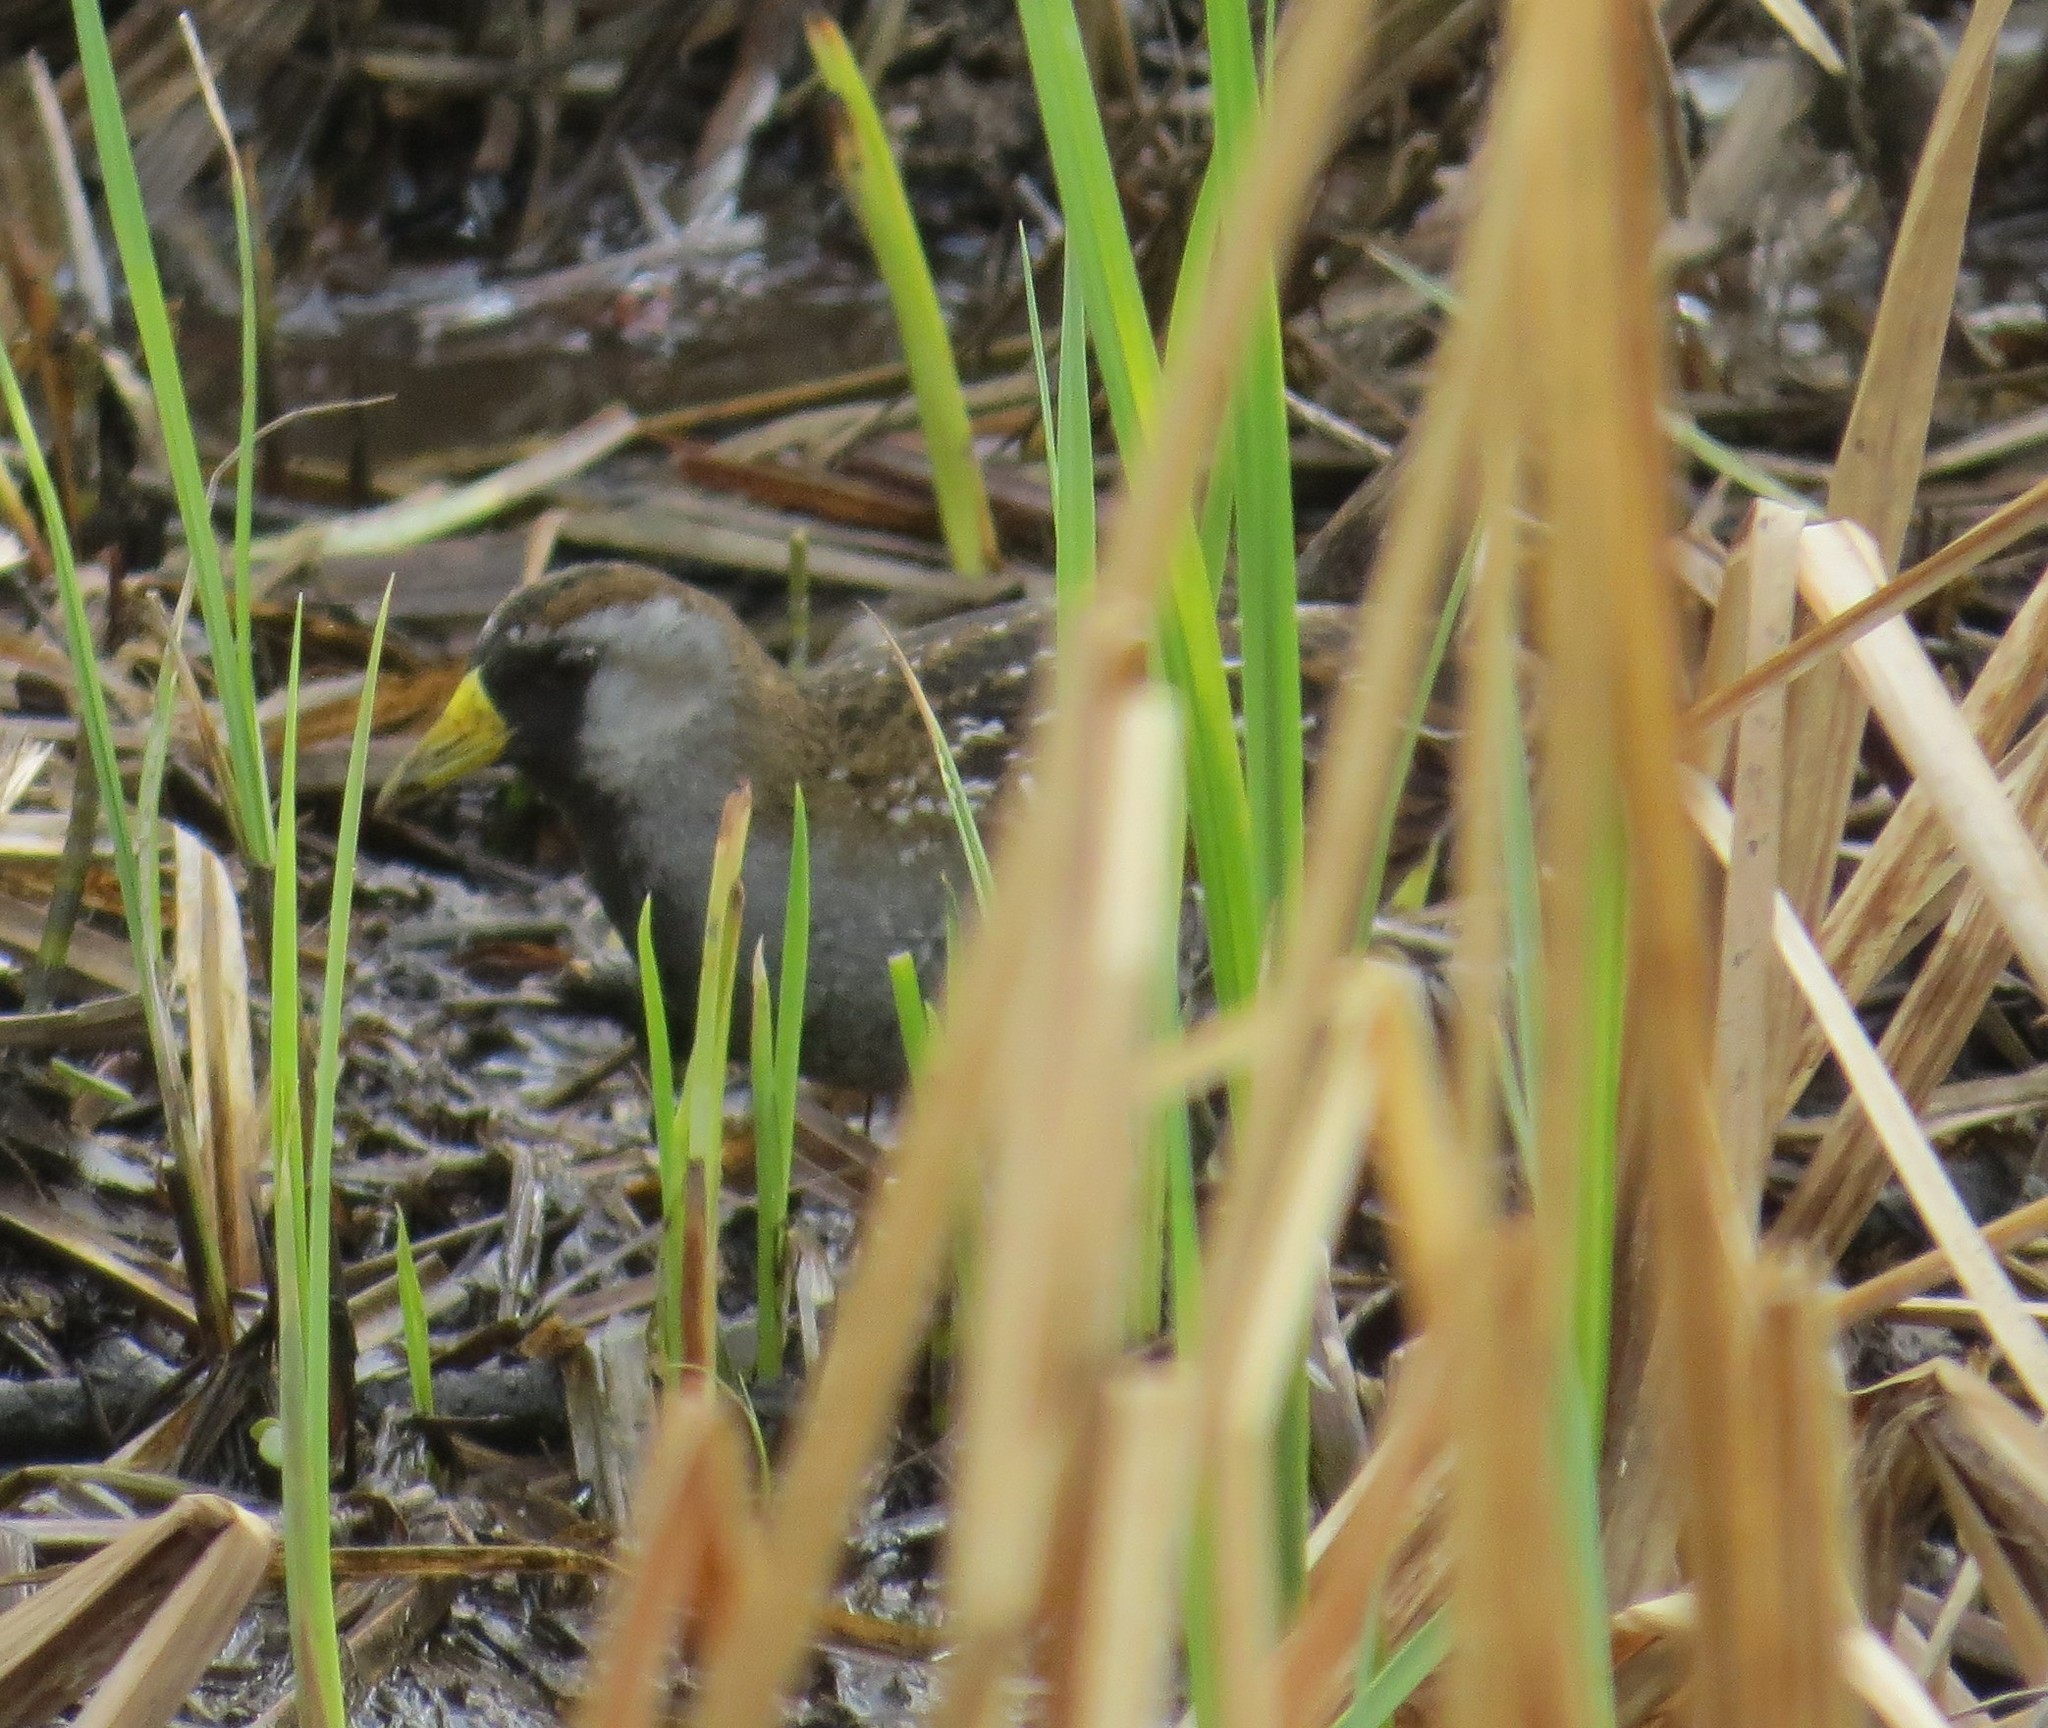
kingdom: Animalia
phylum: Chordata
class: Aves
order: Gruiformes
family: Rallidae
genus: Porzana
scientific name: Porzana carolina
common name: Sora
